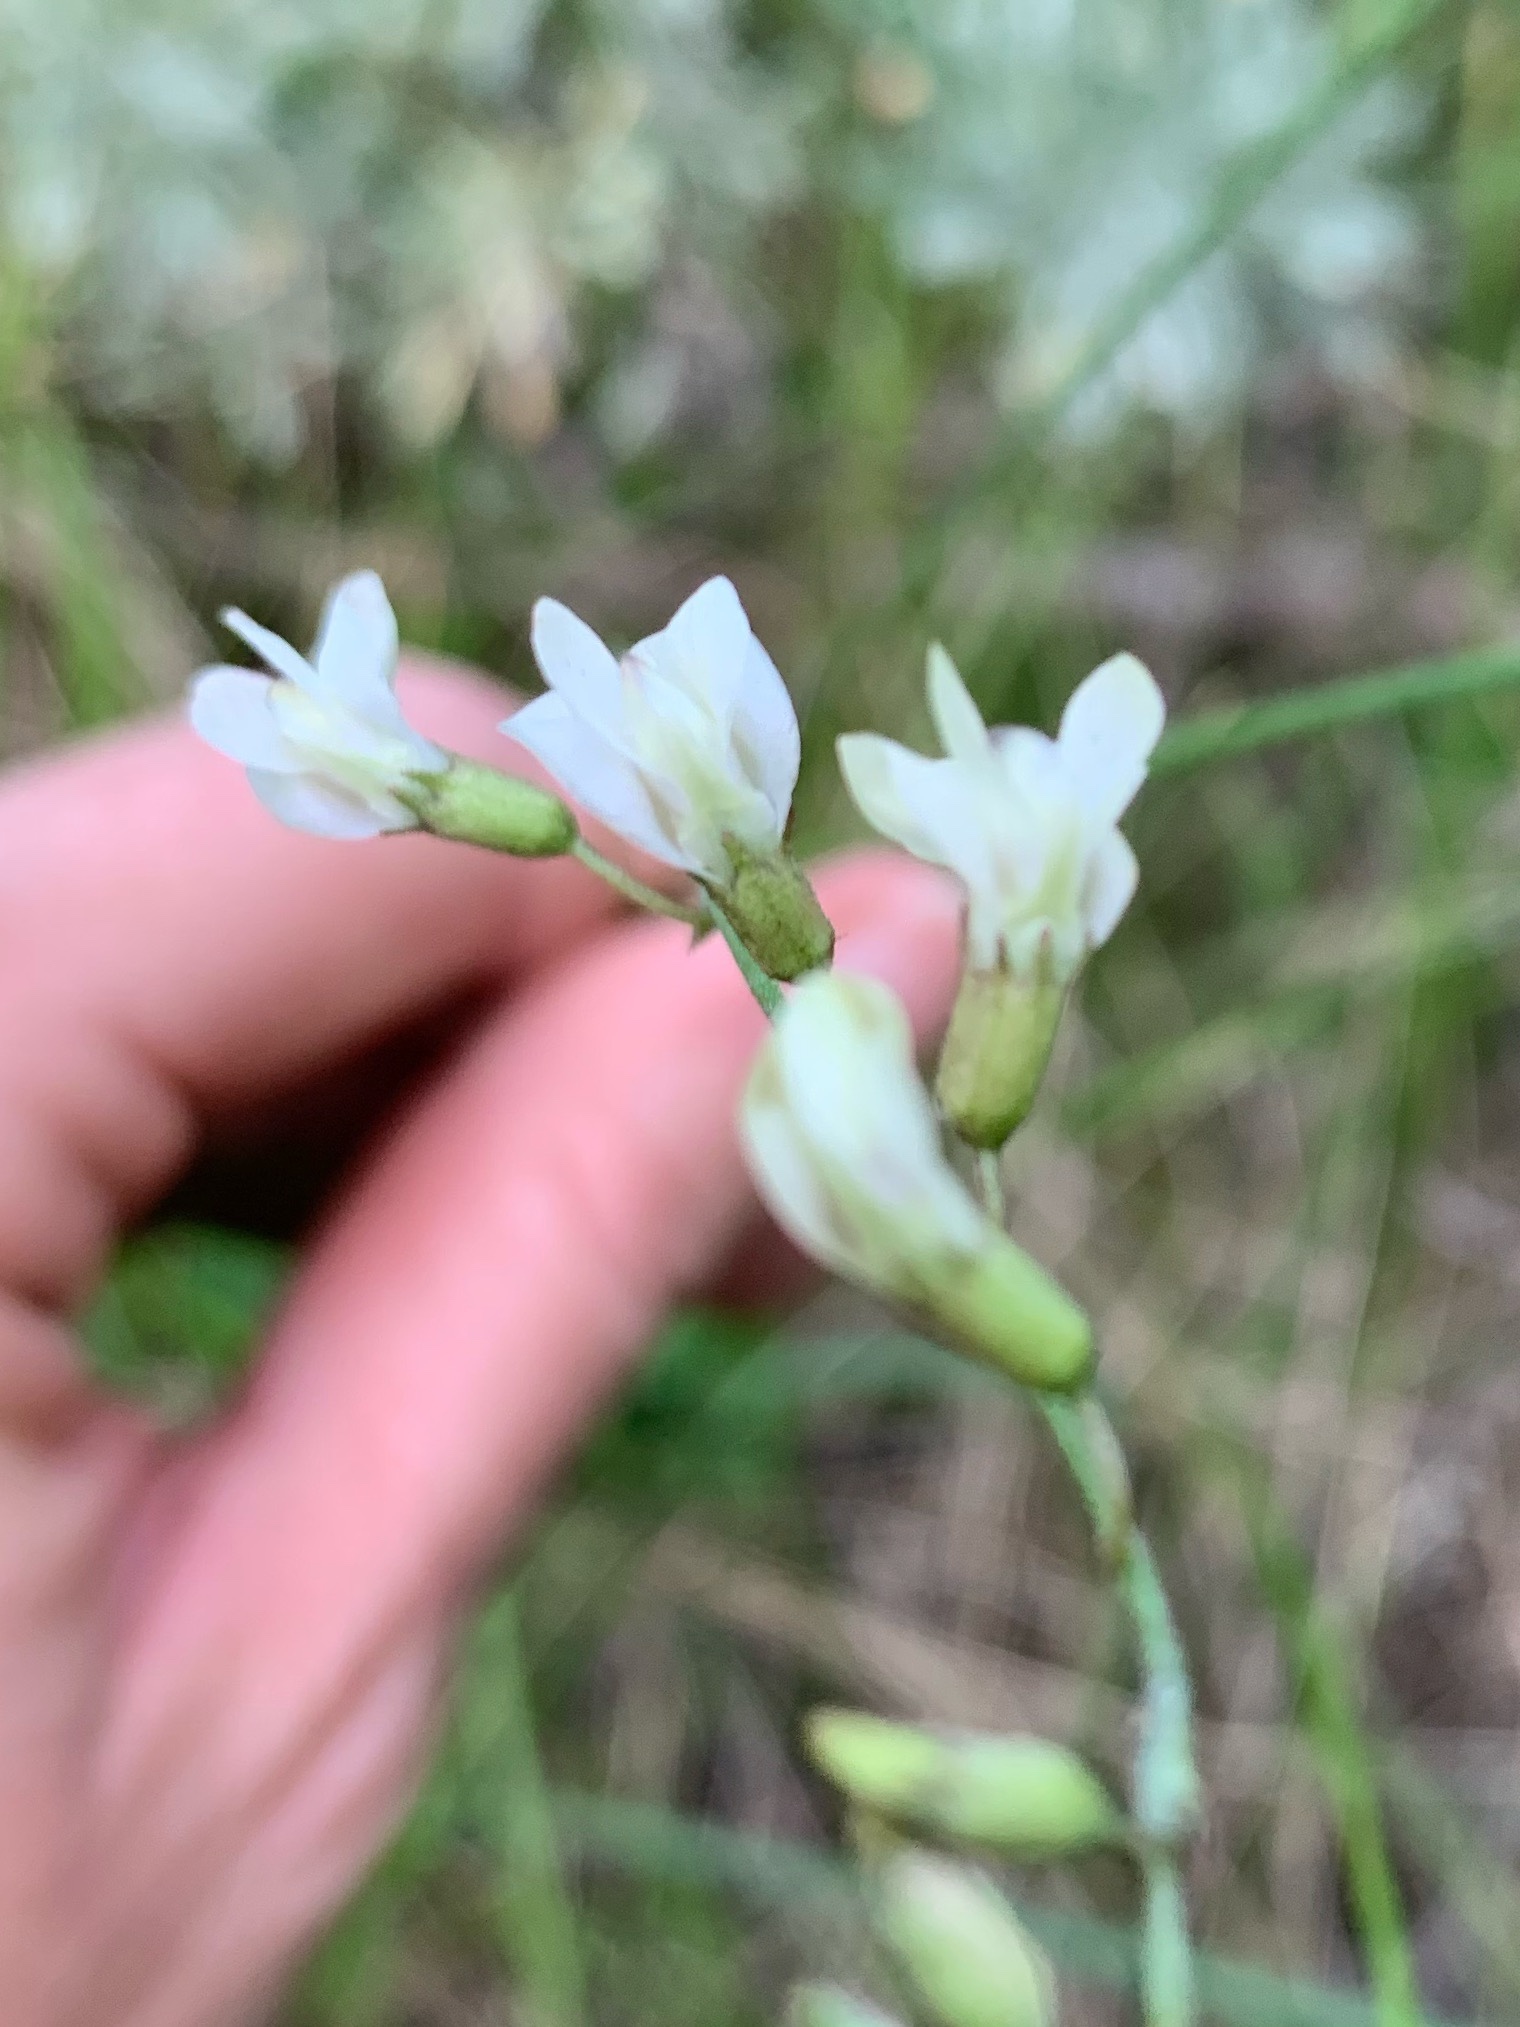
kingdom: Plantae
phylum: Tracheophyta
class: Magnoliopsida
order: Fabales
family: Fabaceae
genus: Astragalus
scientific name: Astragalus miser
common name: Timber milkvetch
